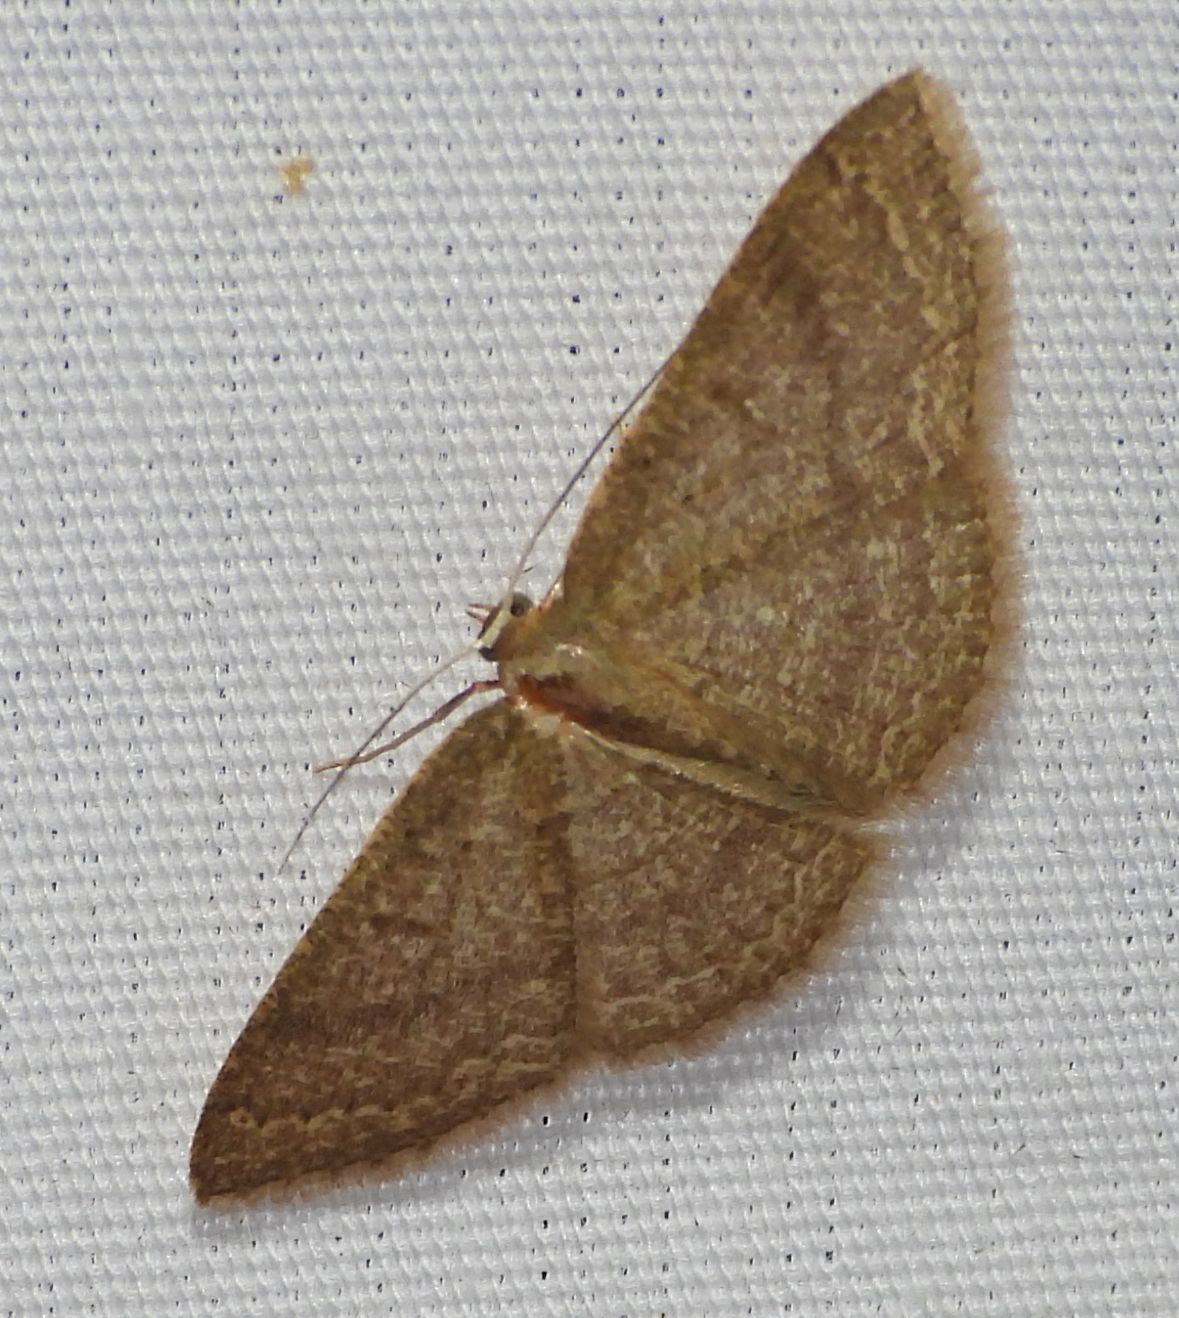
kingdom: Animalia
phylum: Arthropoda
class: Insecta
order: Lepidoptera
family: Geometridae
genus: Pleuroprucha
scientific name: Pleuroprucha insulsaria
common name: Common tan wave
